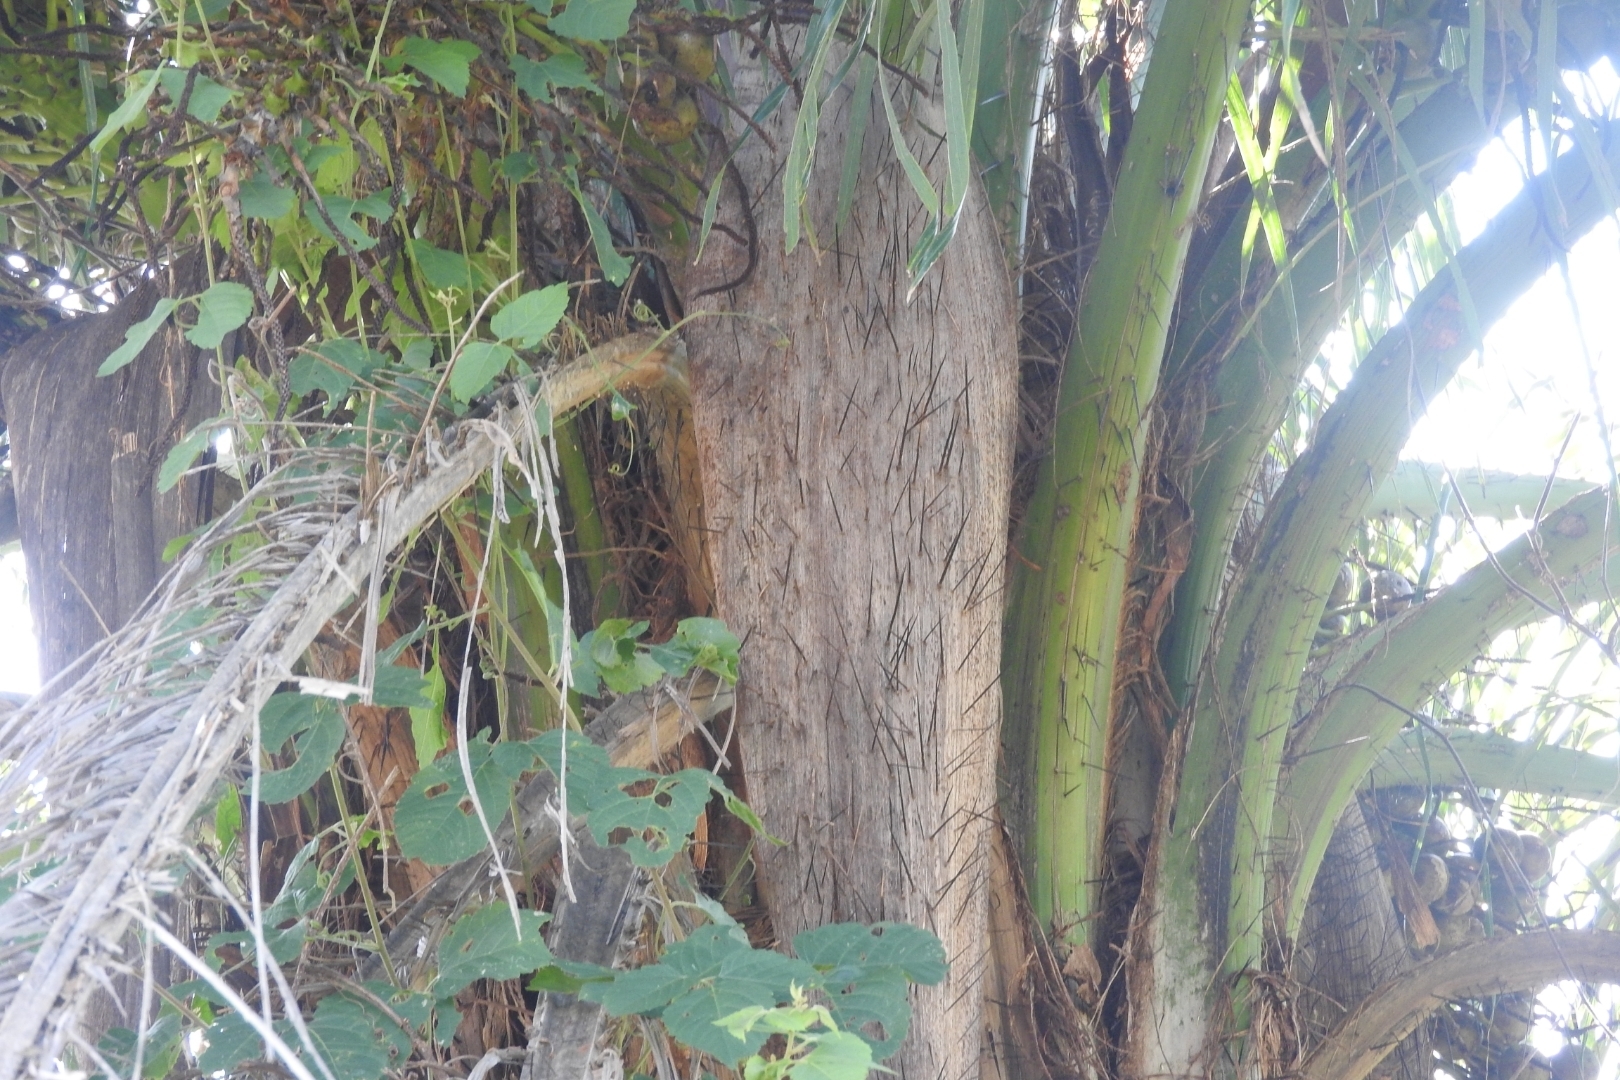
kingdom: Plantae
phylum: Tracheophyta
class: Liliopsida
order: Arecales
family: Arecaceae
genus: Acrocomia
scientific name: Acrocomia aculeata
